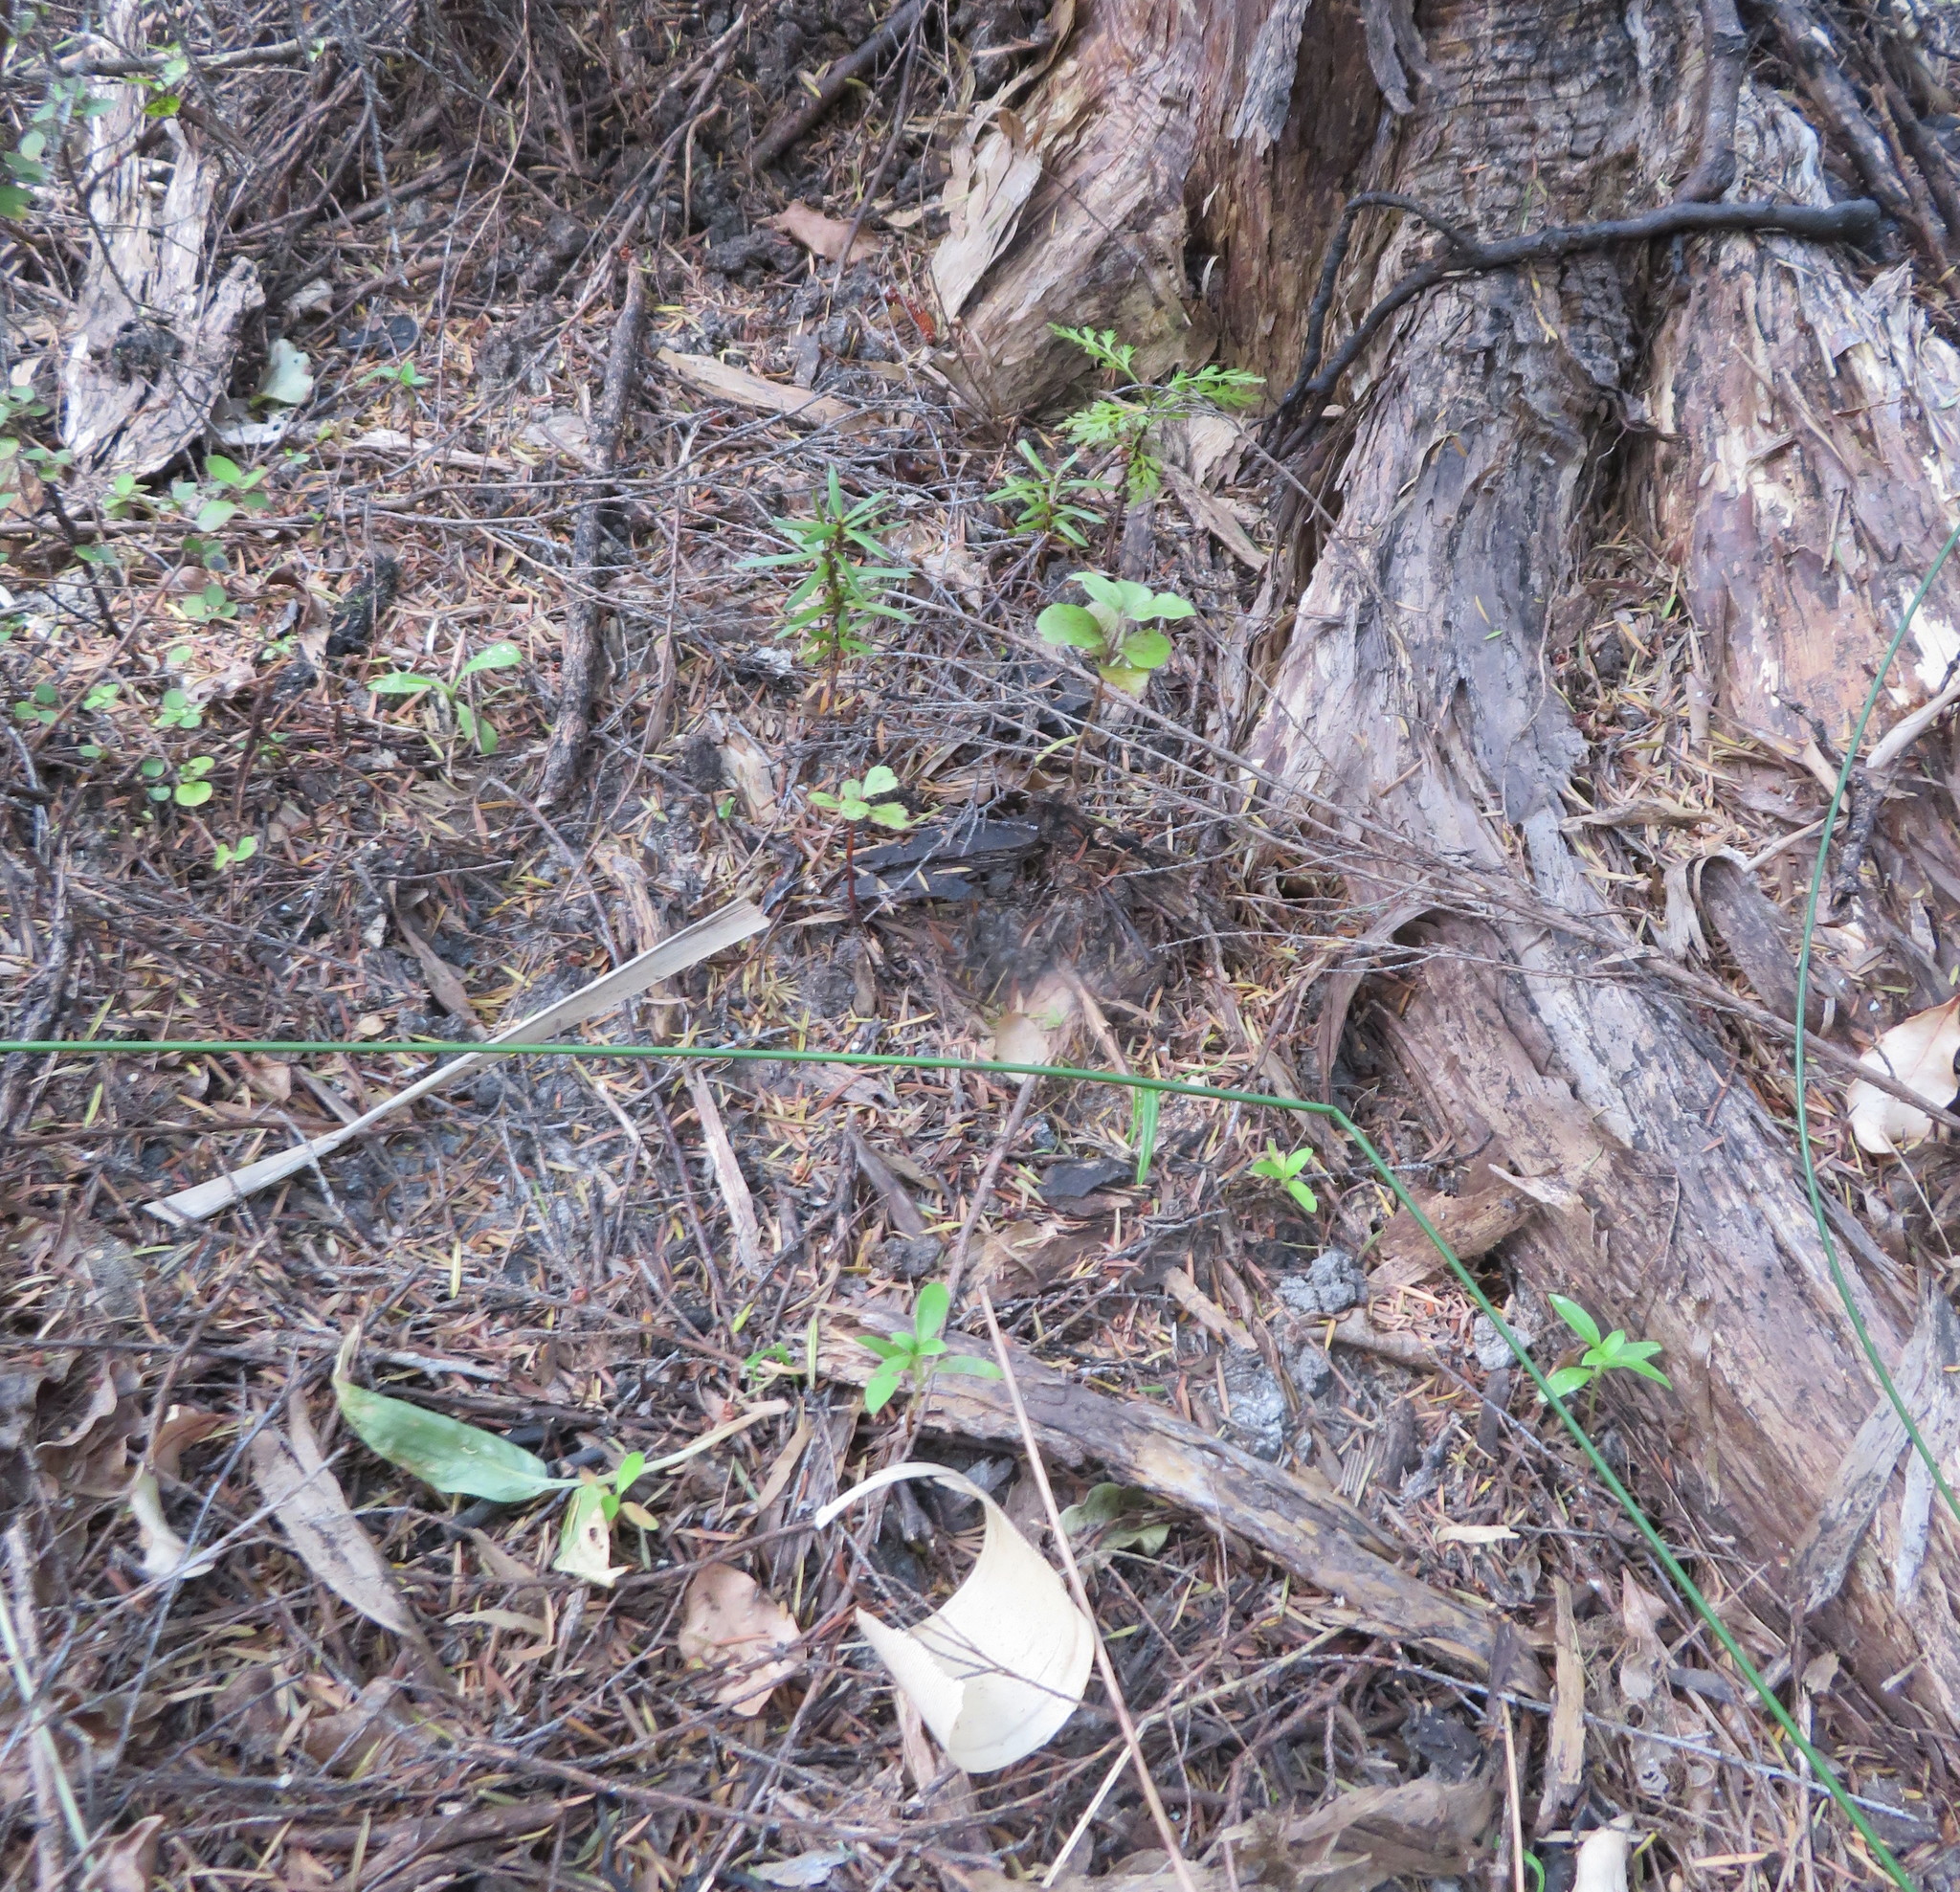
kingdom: Plantae
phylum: Tracheophyta
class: Pinopsida
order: Pinales
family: Phyllocladaceae
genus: Phyllocladus
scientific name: Phyllocladus trichomanoides
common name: Celery pine
